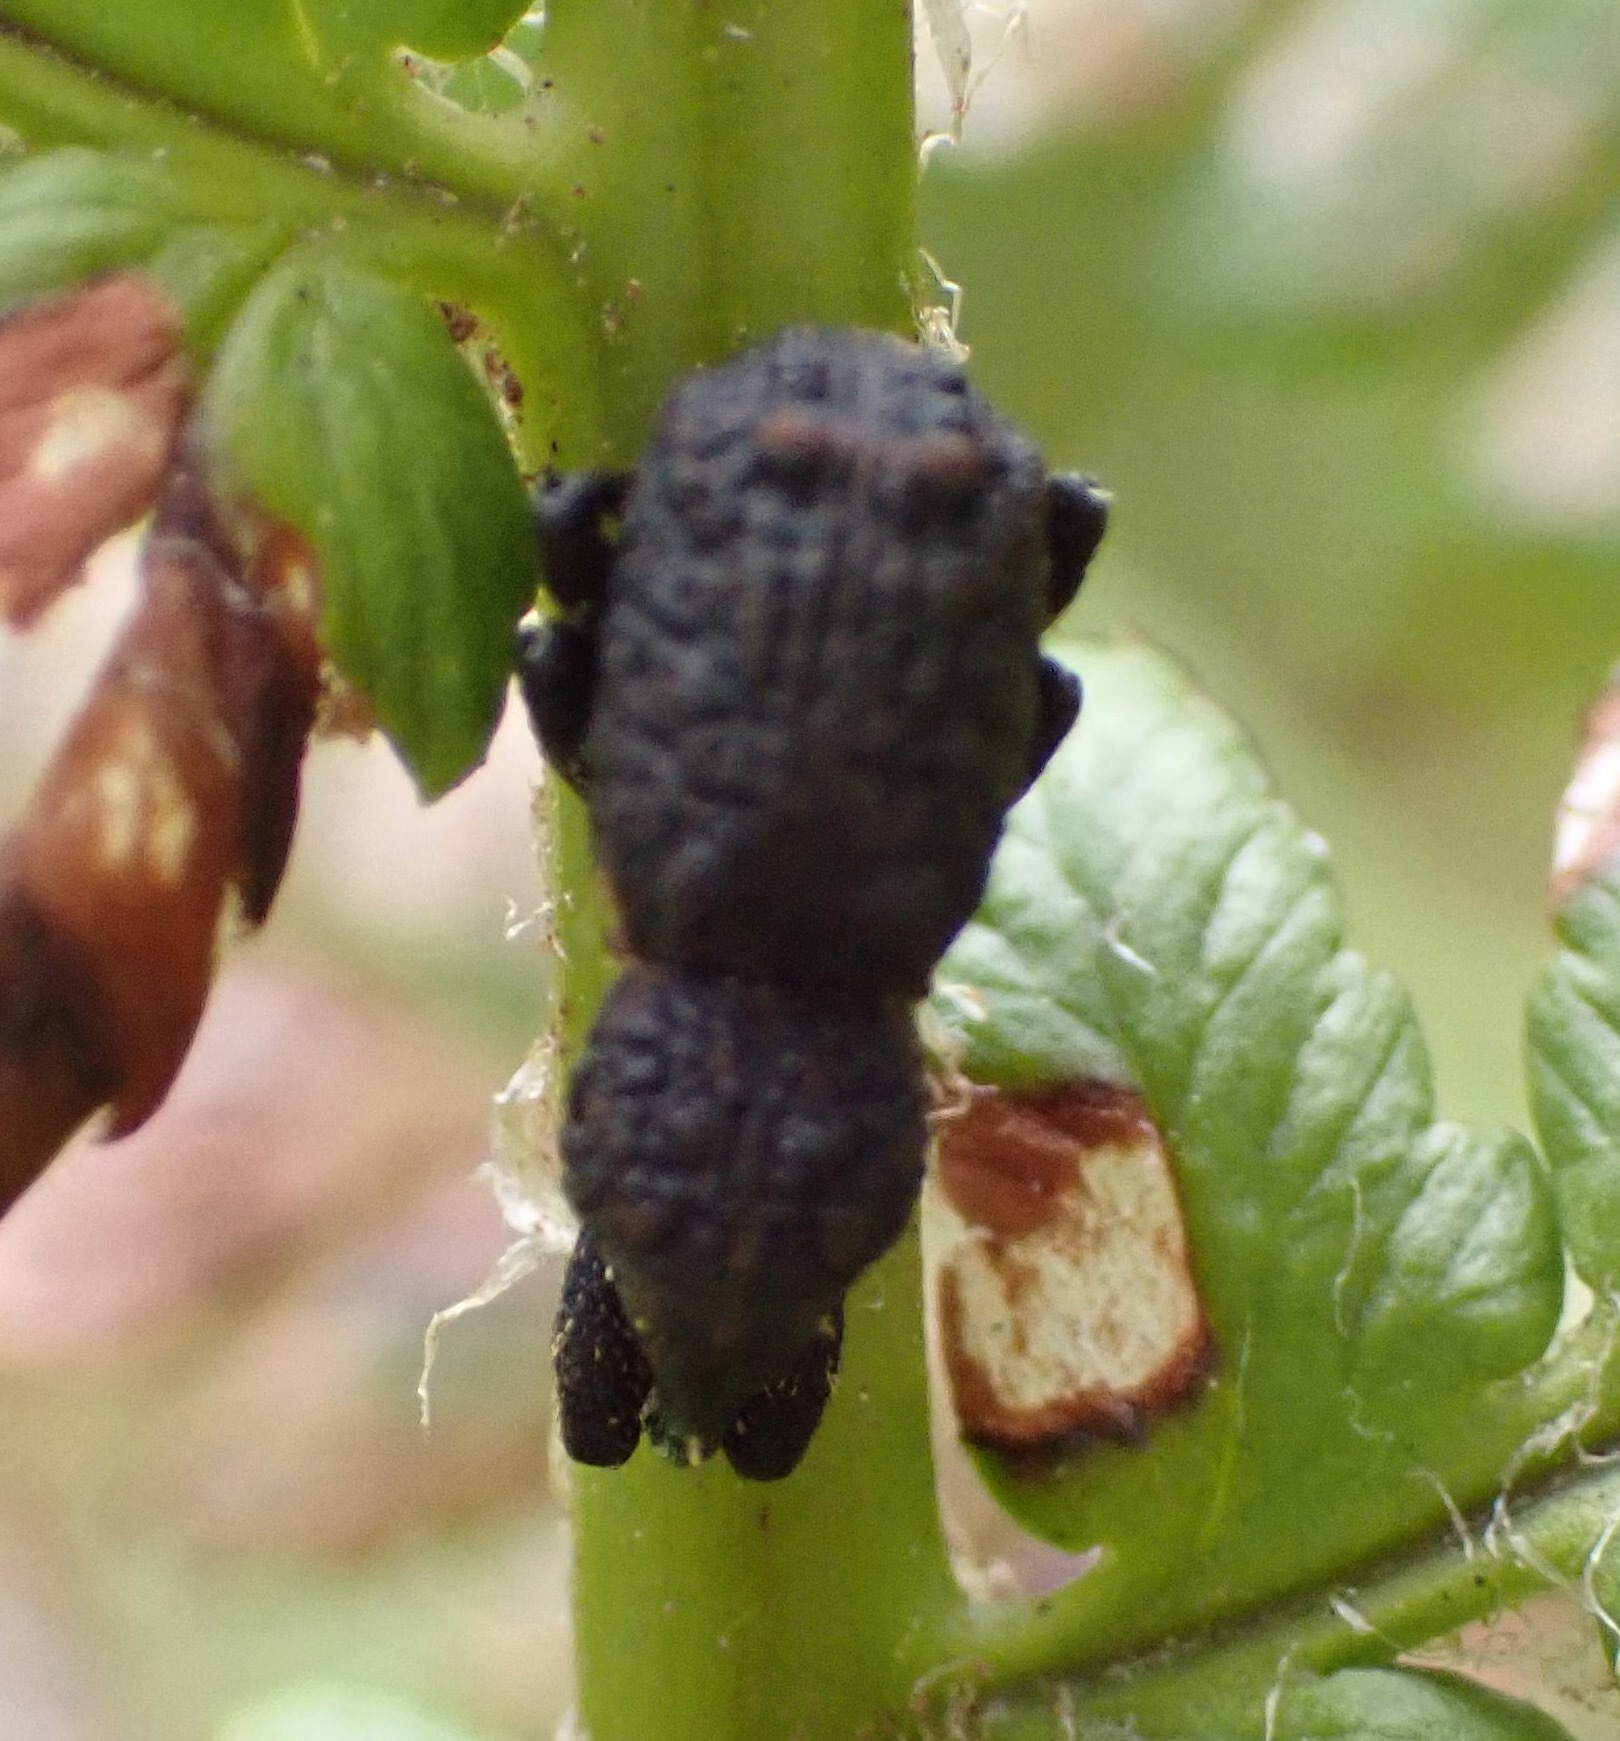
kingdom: Animalia
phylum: Arthropoda
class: Insecta
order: Coleoptera
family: Curculionidae
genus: Syagrius
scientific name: Syagrius intrudens
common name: Fern weevil
